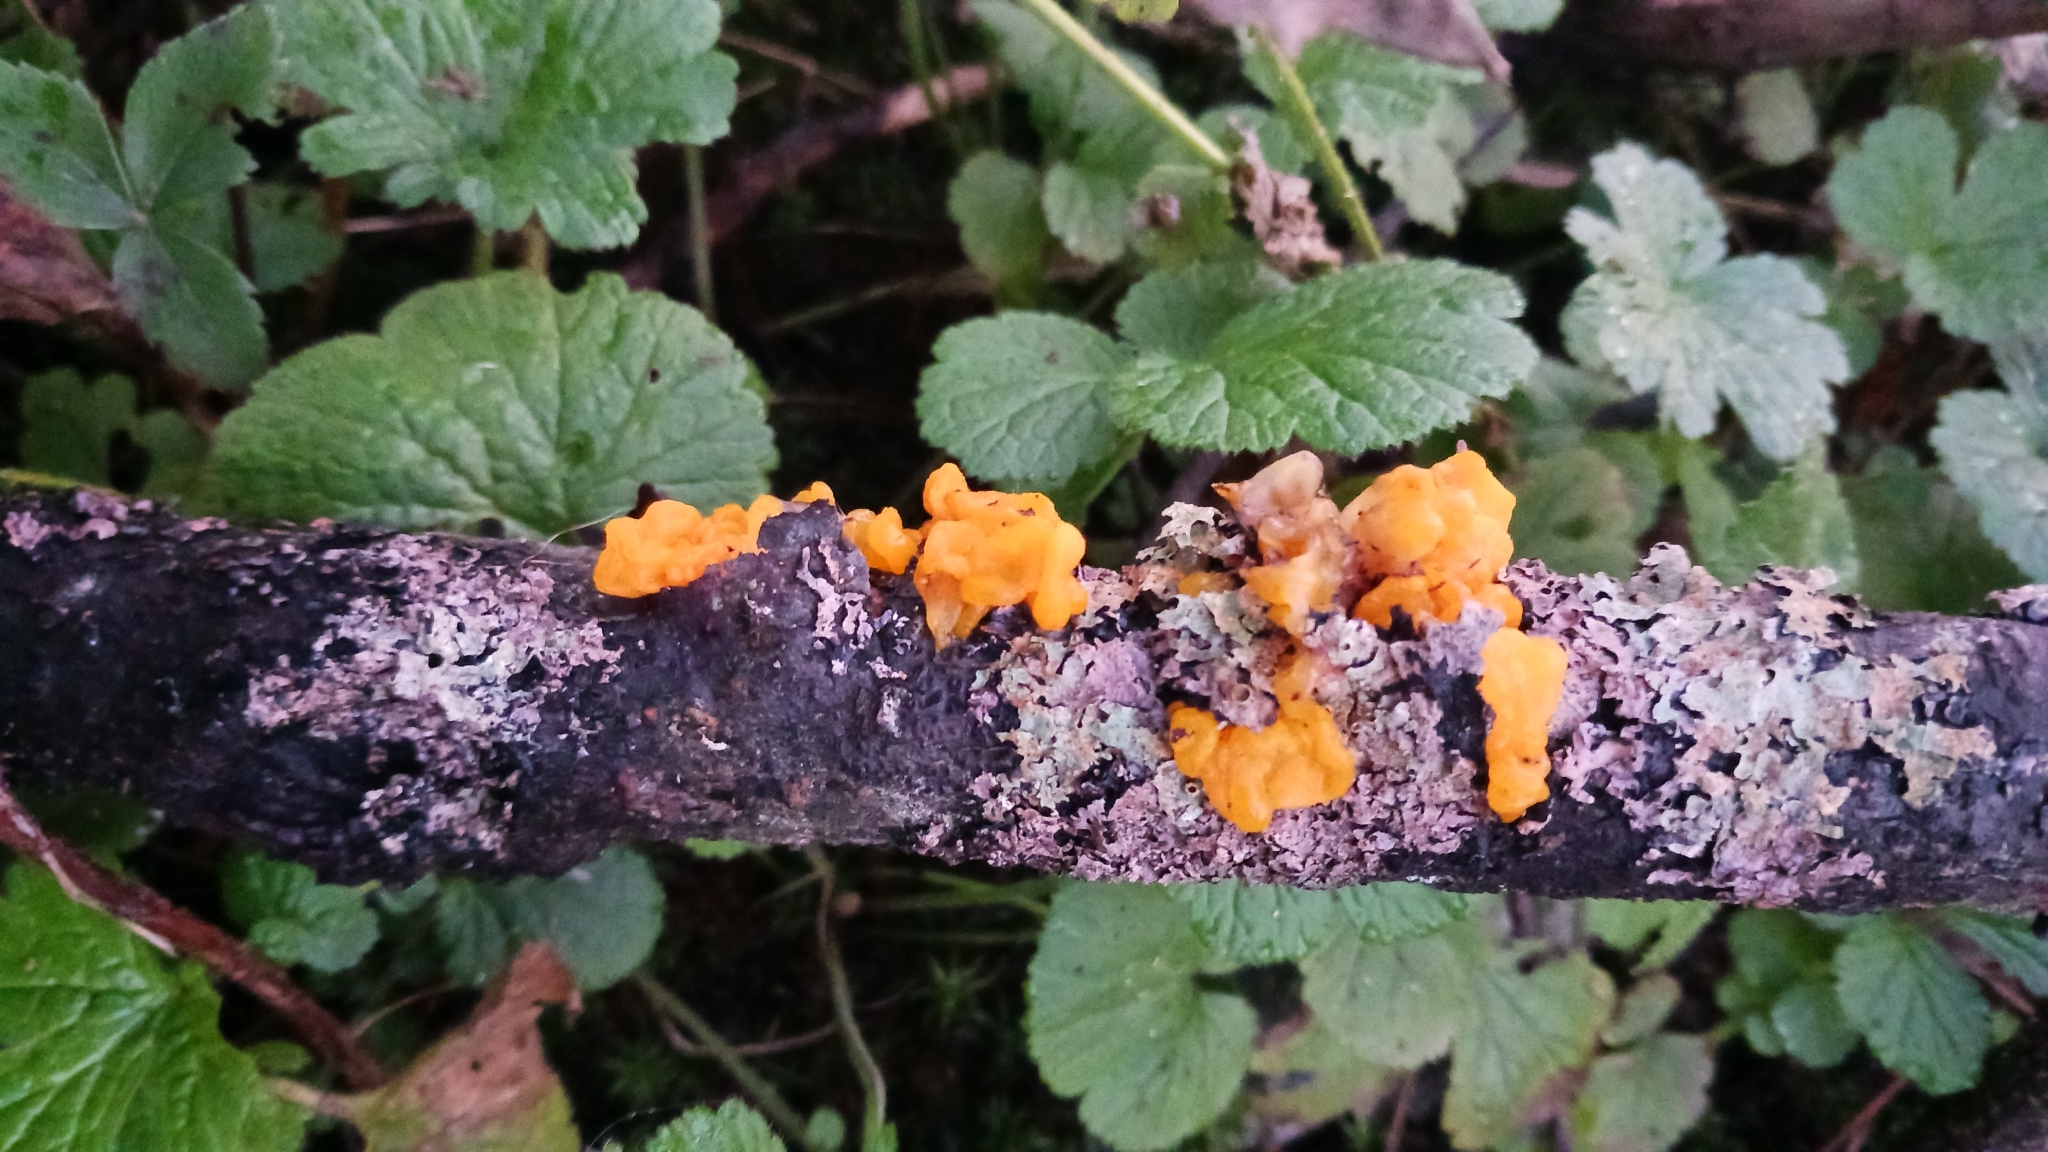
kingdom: Fungi
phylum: Basidiomycota
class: Tremellomycetes
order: Tremellales
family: Tremellaceae
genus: Tremella
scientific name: Tremella mesenterica
